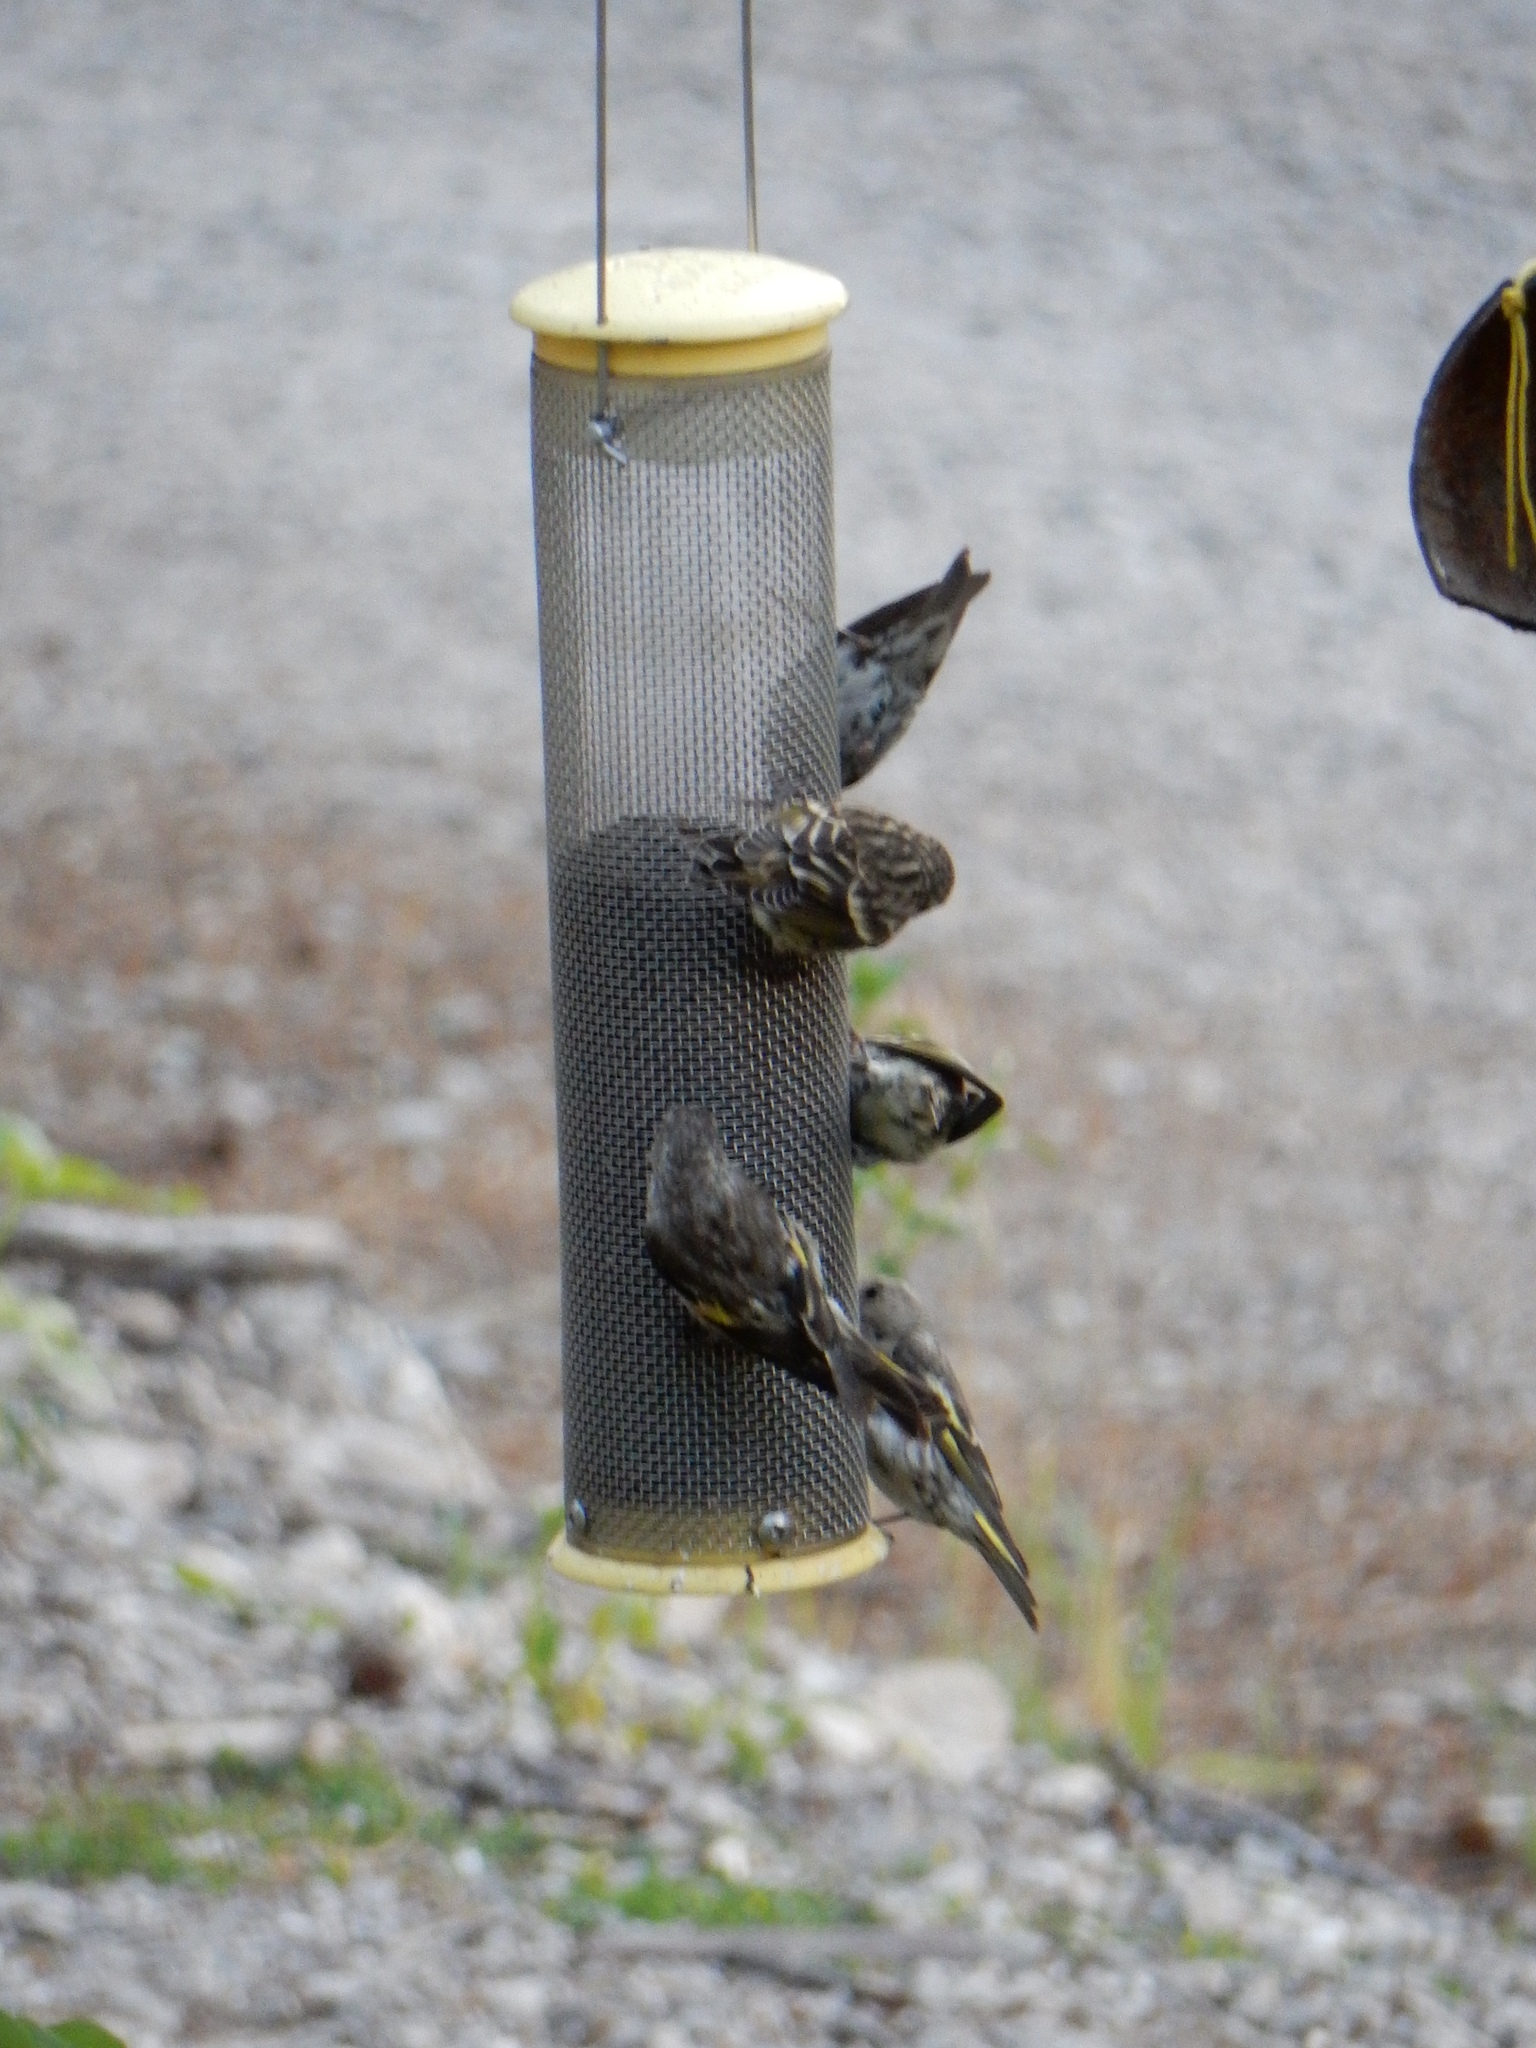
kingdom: Animalia
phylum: Chordata
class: Aves
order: Passeriformes
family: Fringillidae
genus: Spinus
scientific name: Spinus pinus
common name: Pine siskin
